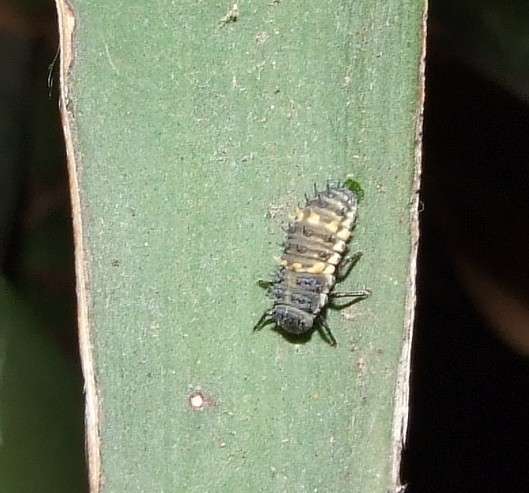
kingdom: Animalia
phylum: Arthropoda
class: Insecta
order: Coleoptera
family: Coccinellidae
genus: Harmonia
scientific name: Harmonia conformis
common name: Common spotted ladybird beetle
